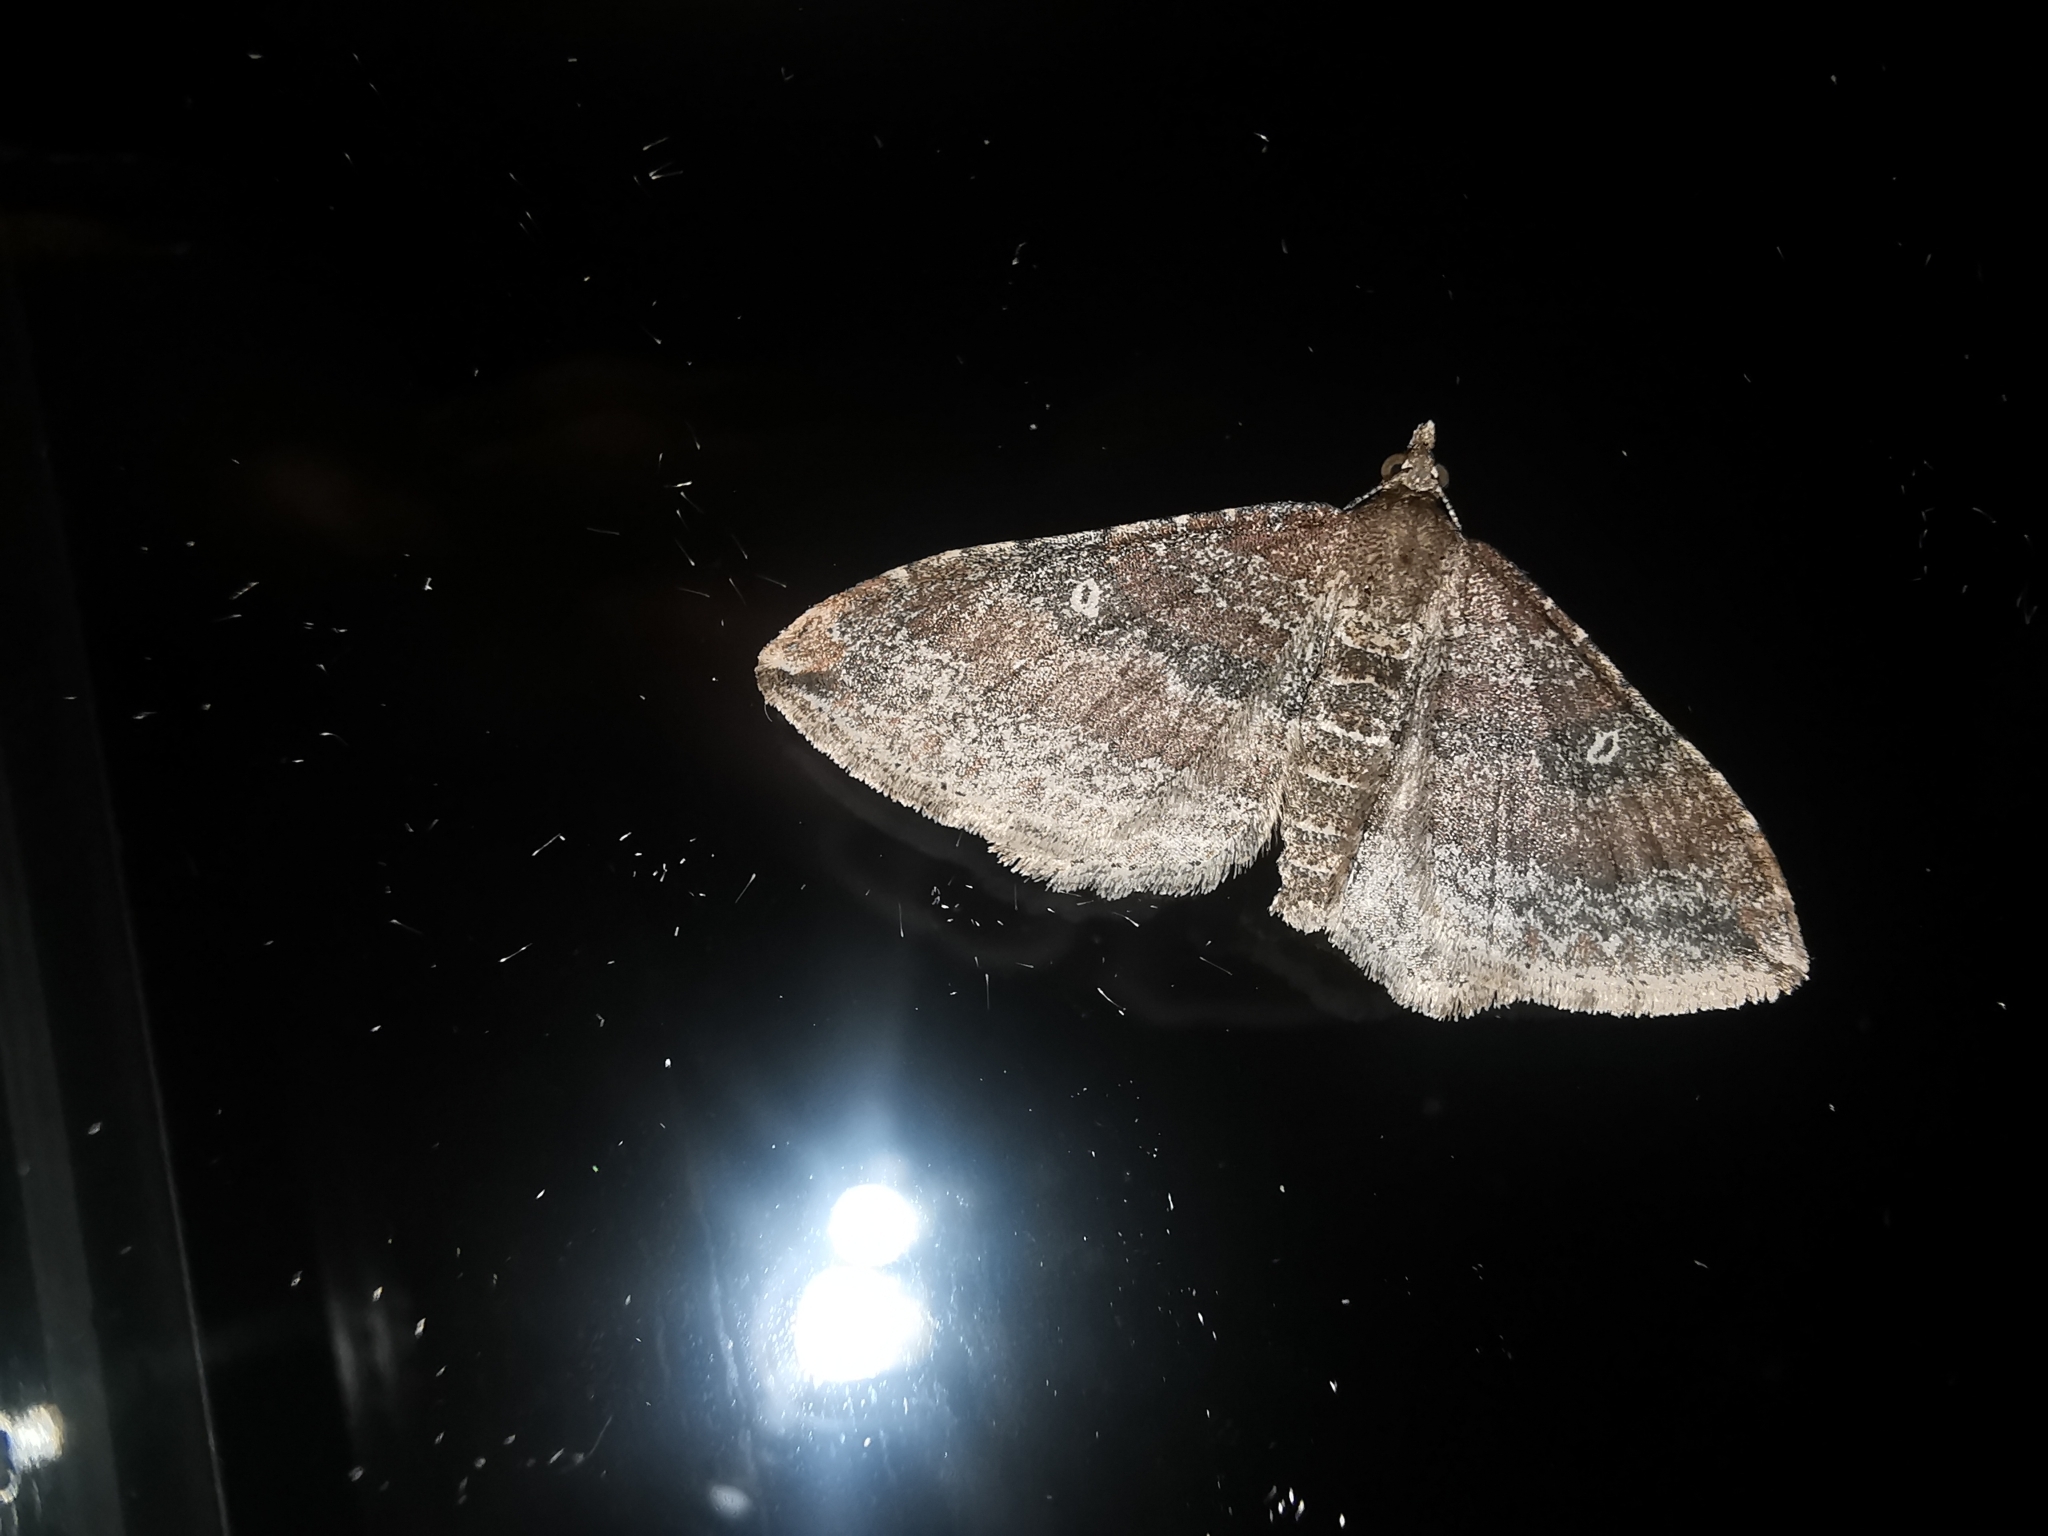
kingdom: Animalia
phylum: Arthropoda
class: Insecta
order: Lepidoptera
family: Geometridae
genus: Orthonama
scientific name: Orthonama obstipata
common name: The gem
